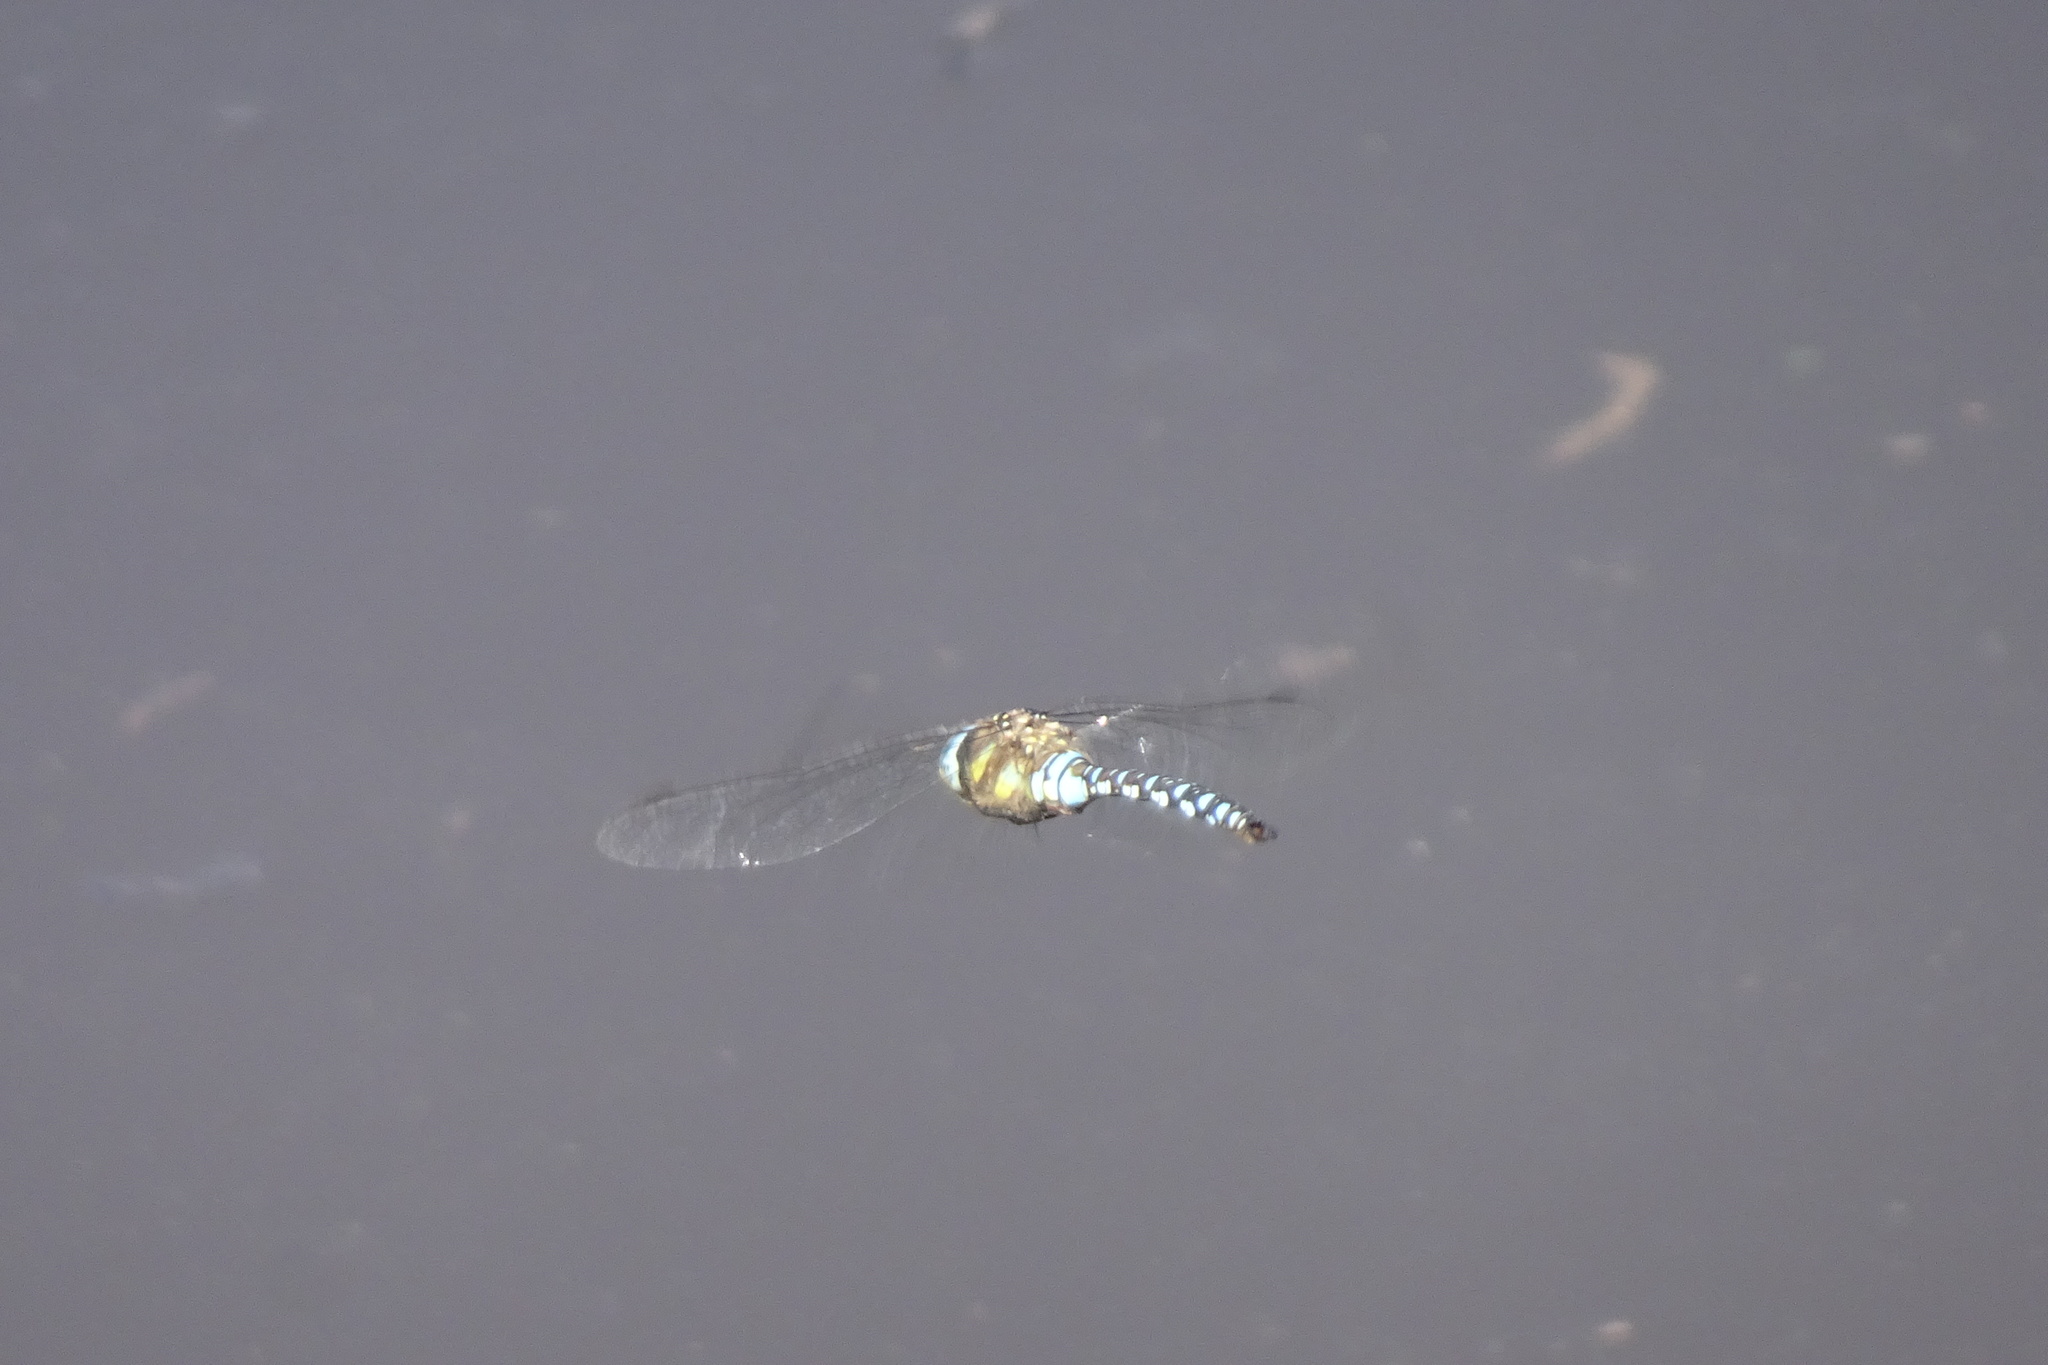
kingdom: Animalia
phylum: Arthropoda
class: Insecta
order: Odonata
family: Aeshnidae
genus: Aeshna
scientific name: Aeshna mixta
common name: Migrant hawker
